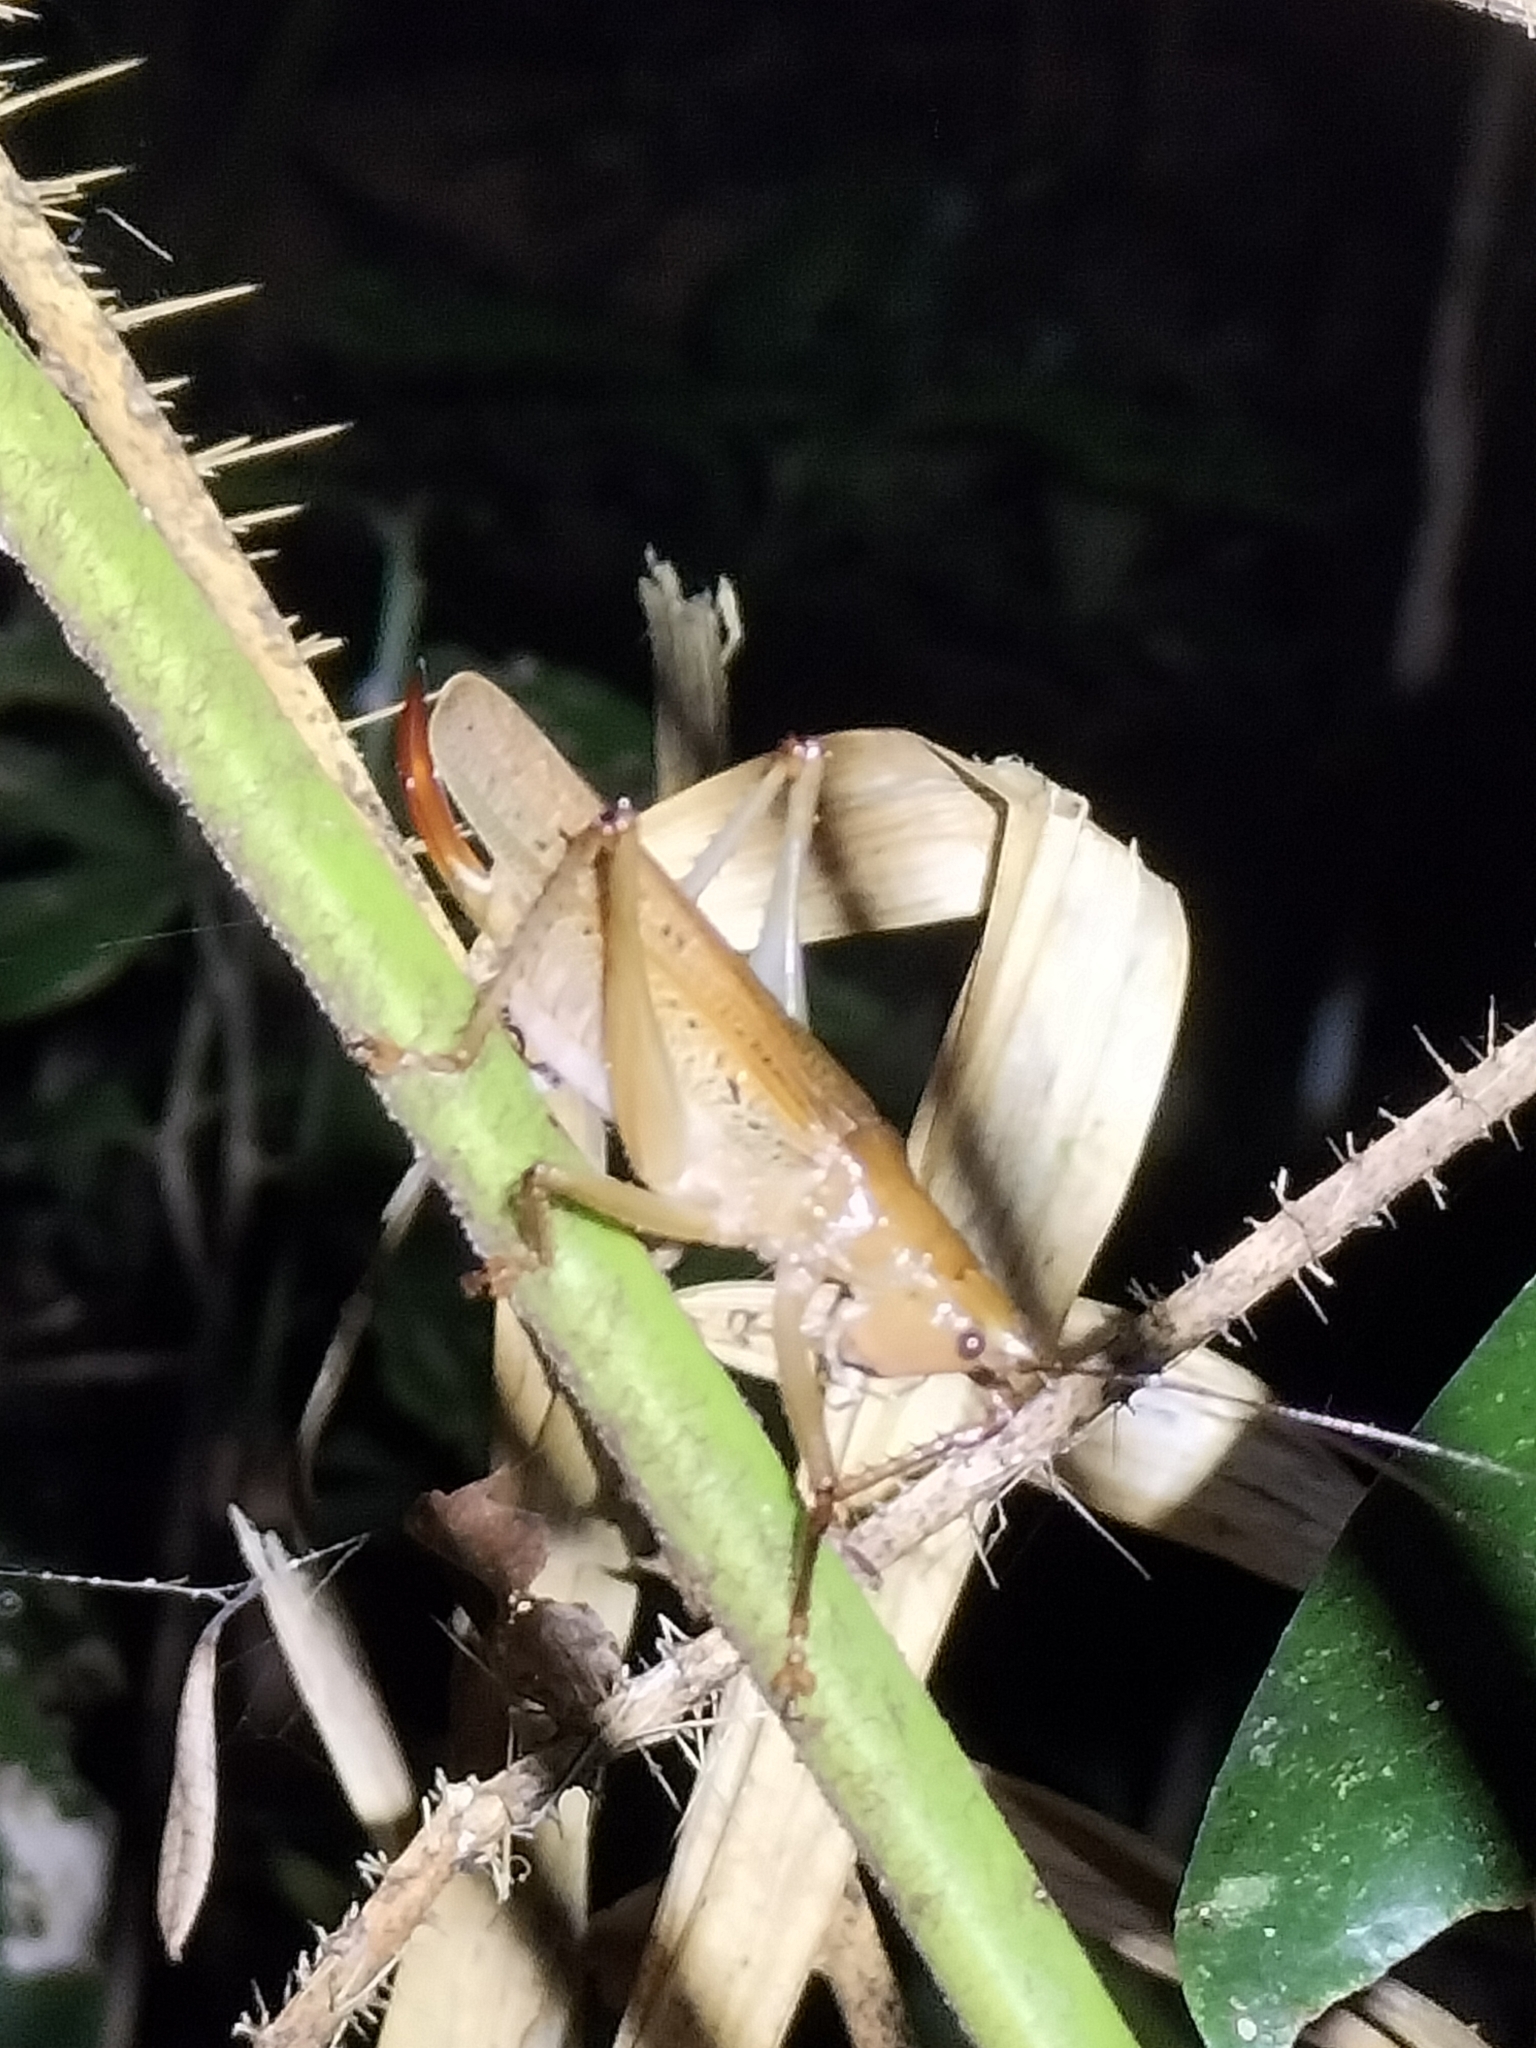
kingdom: Animalia
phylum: Arthropoda
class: Insecta
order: Orthoptera
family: Tettigoniidae
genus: Barbaragraecia
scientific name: Barbaragraecia richardsoni
